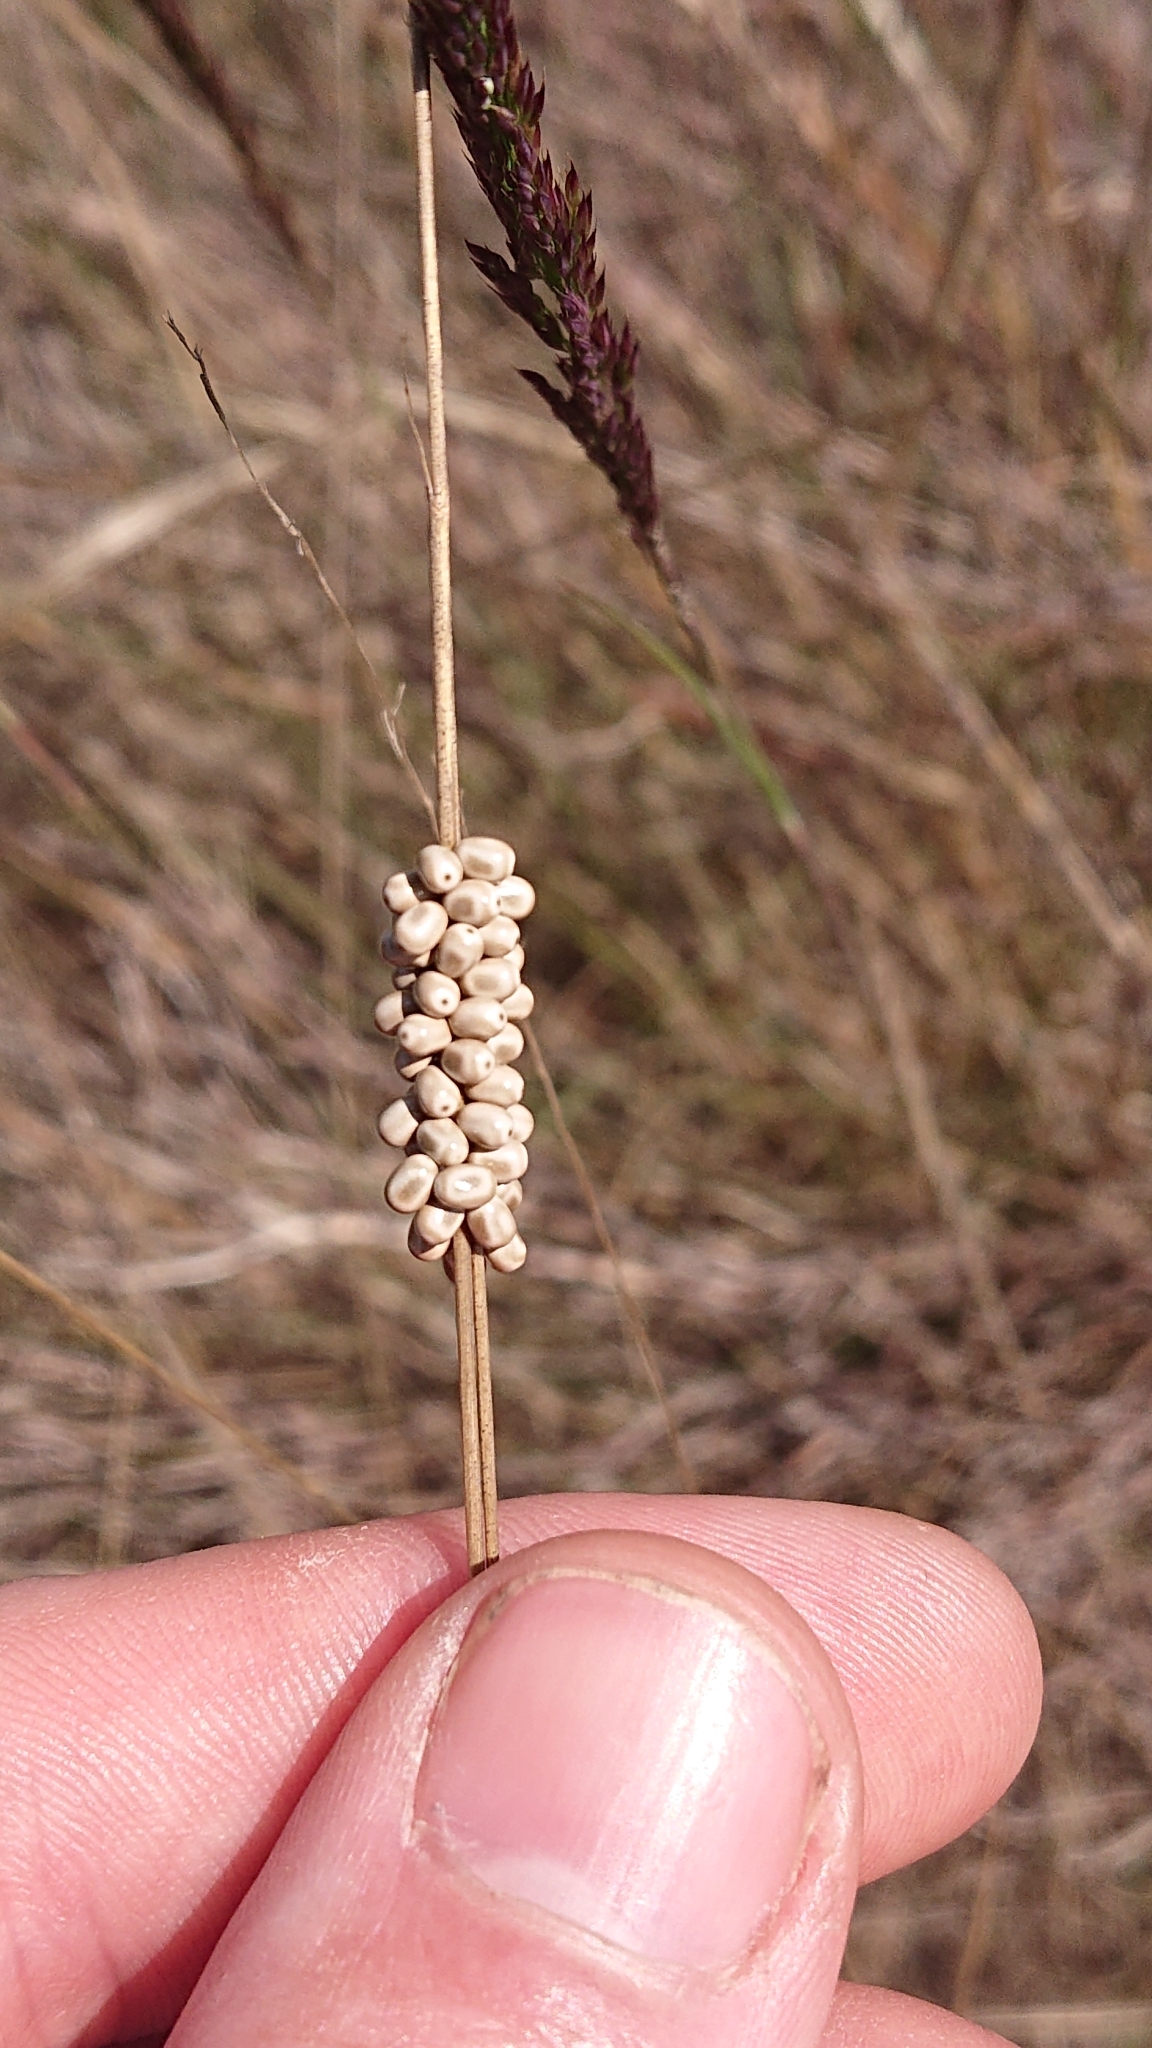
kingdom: Animalia
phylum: Arthropoda
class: Insecta
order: Lepidoptera
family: Lasiocampidae
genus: Macrothylacia
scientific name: Macrothylacia rubi
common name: Fox moth
